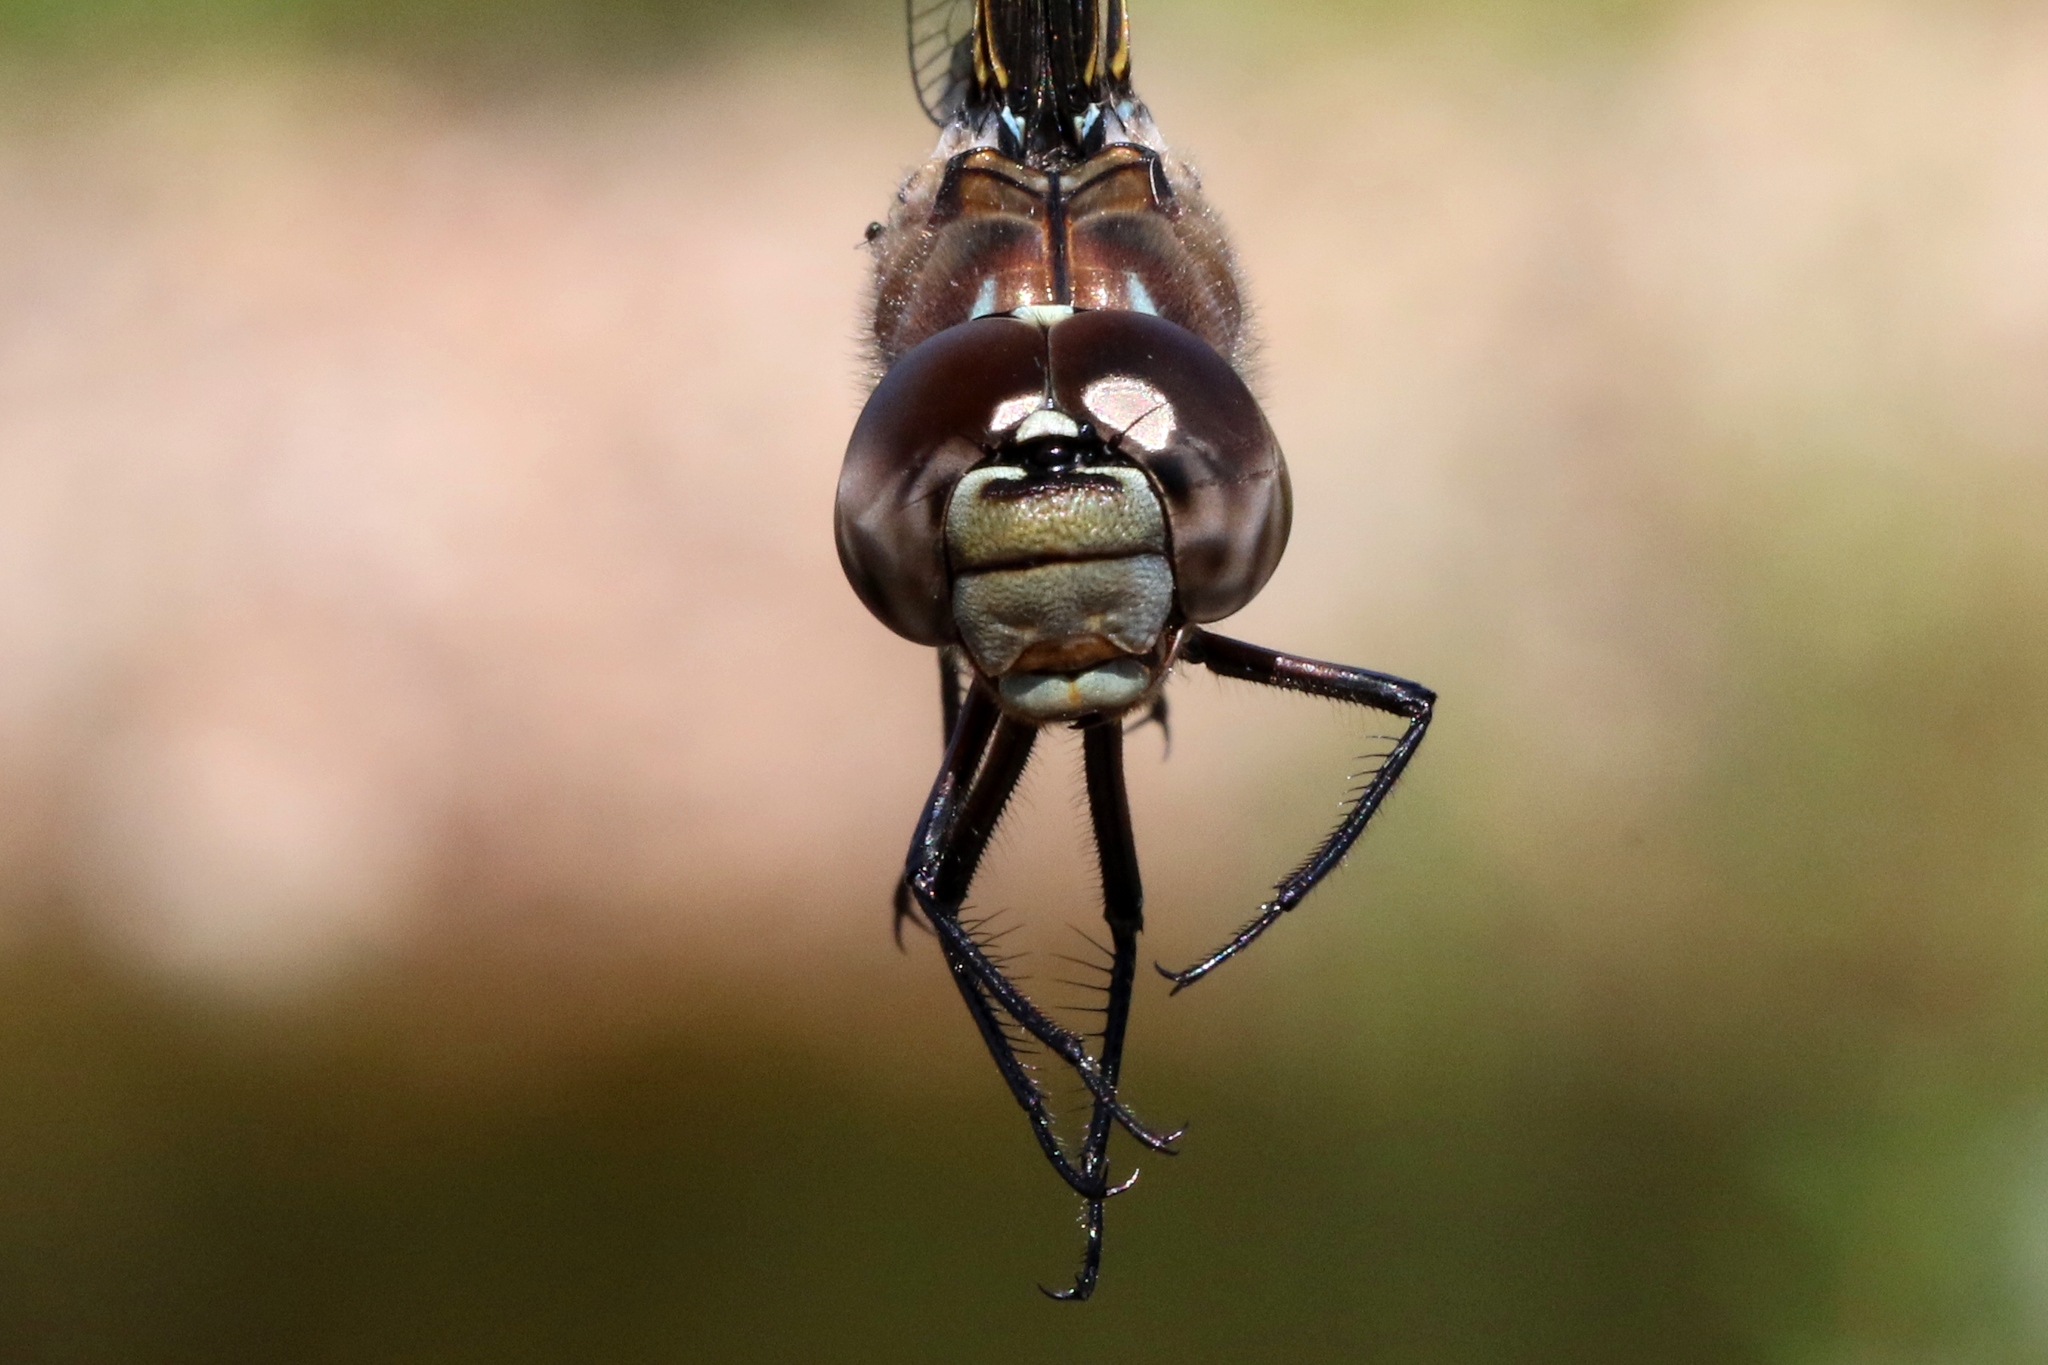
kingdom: Animalia
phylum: Arthropoda
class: Insecta
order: Odonata
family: Aeshnidae
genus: Aeshna
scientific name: Aeshna interrupta
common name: Variable darner
